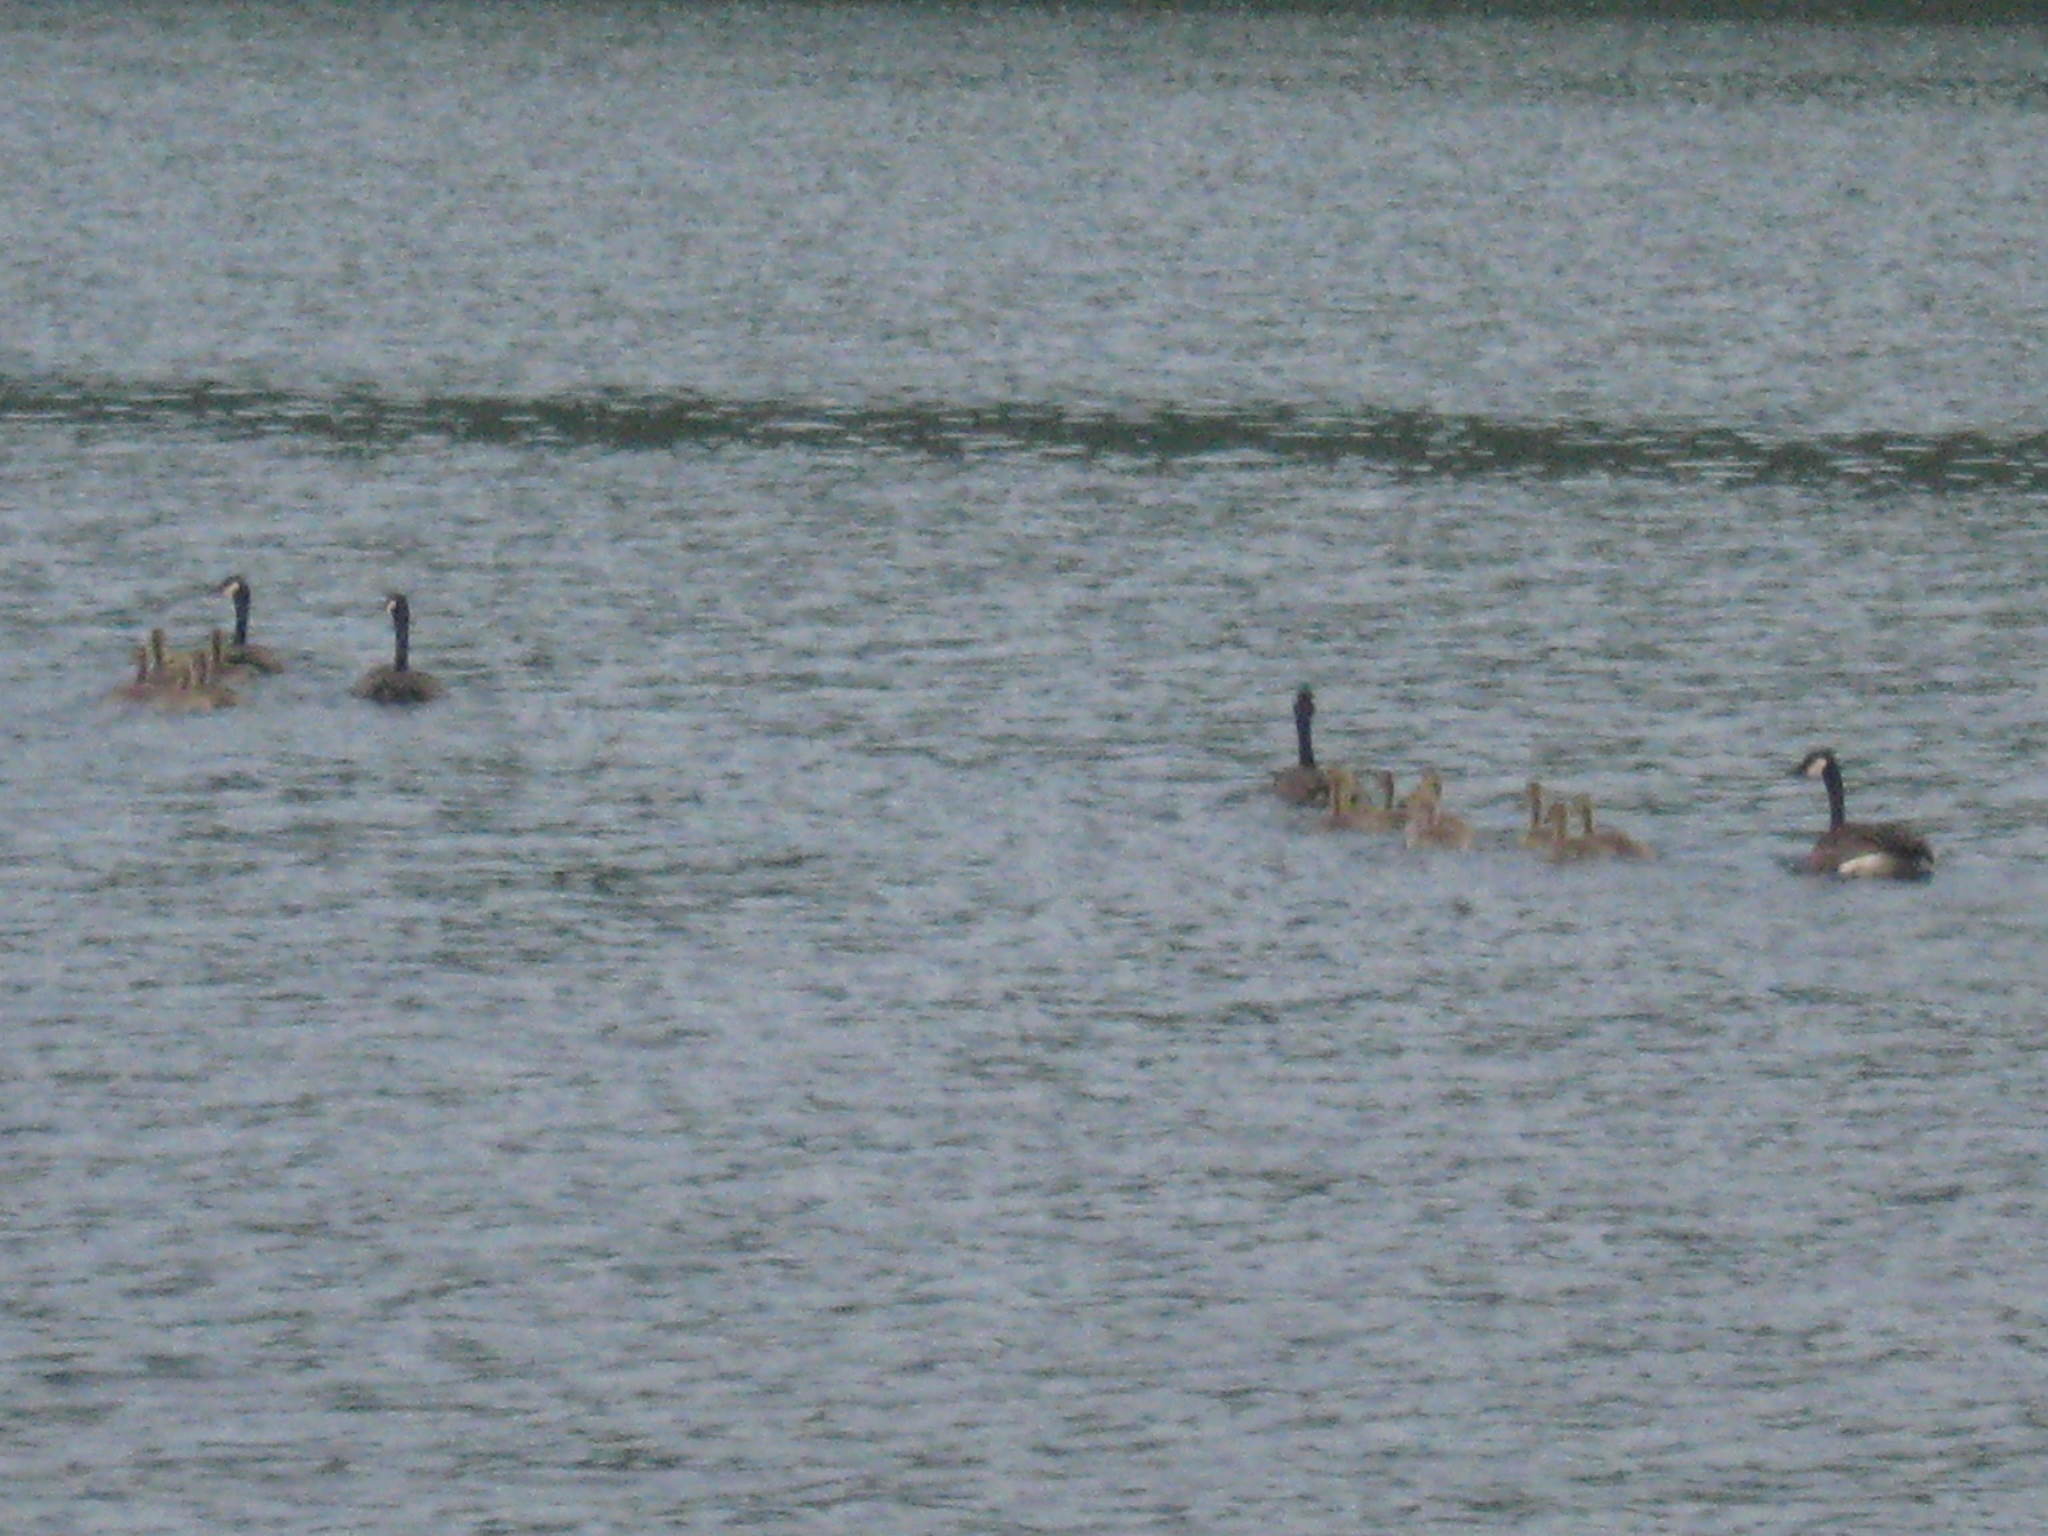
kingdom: Animalia
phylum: Chordata
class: Aves
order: Anseriformes
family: Anatidae
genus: Branta
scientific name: Branta canadensis
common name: Canada goose
